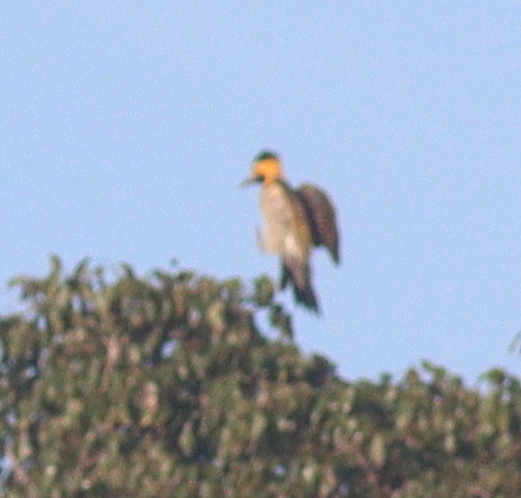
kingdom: Animalia
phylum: Chordata
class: Aves
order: Piciformes
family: Picidae
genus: Colaptes
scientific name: Colaptes campestris
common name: Campo flicker
